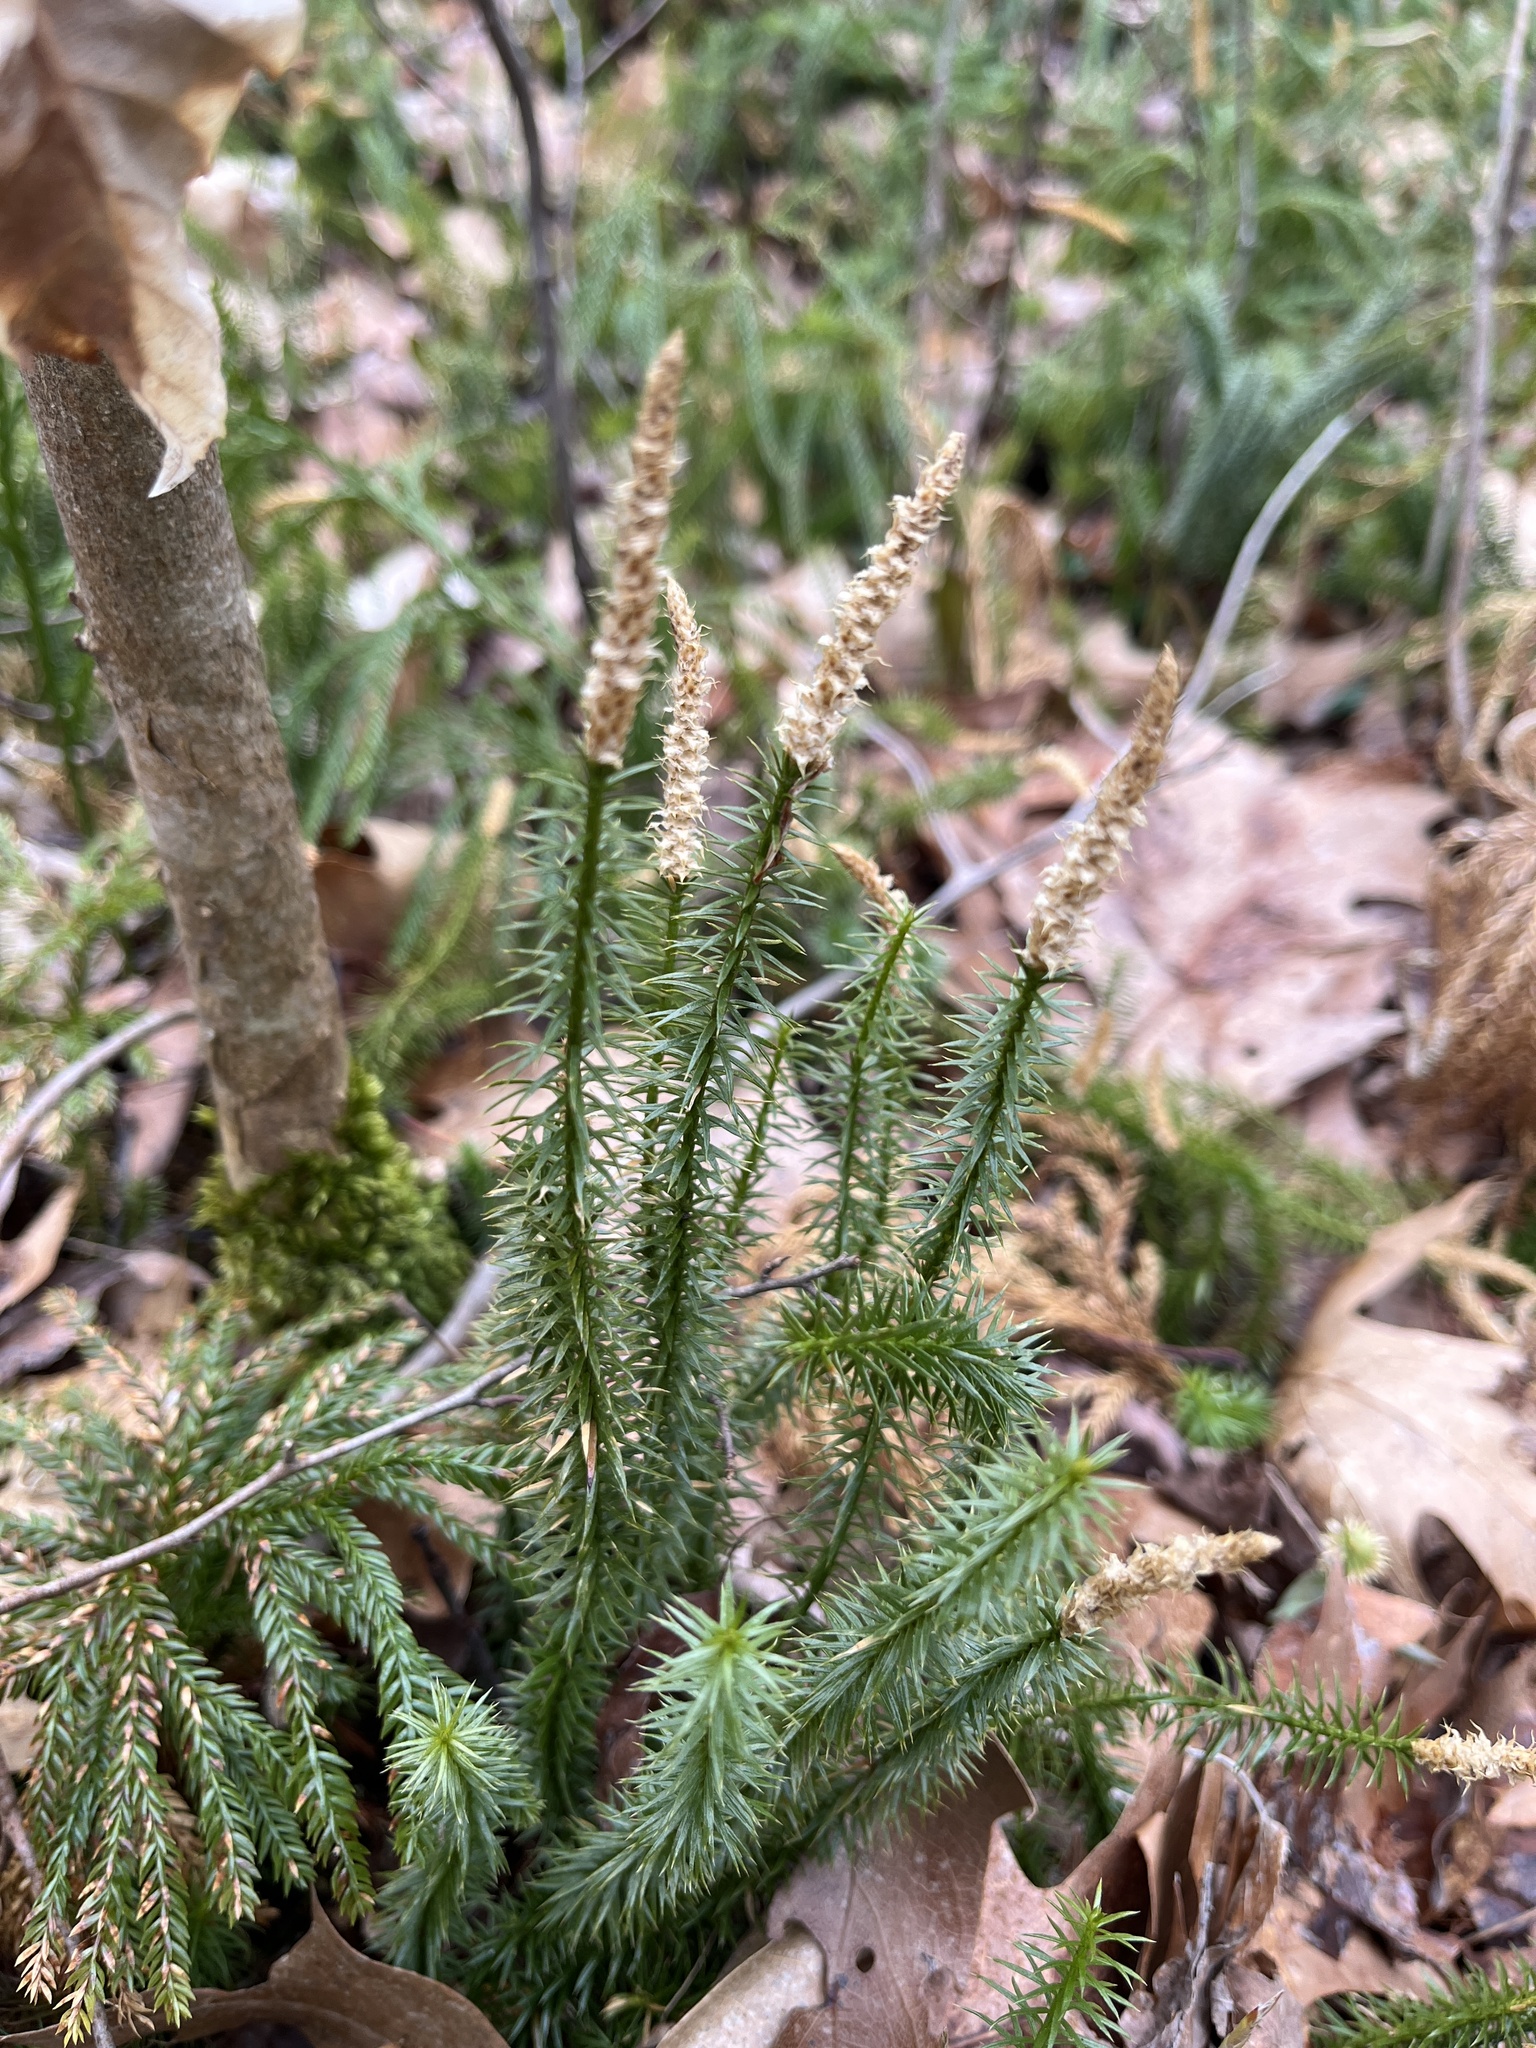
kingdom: Plantae
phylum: Tracheophyta
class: Lycopodiopsida
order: Lycopodiales
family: Lycopodiaceae
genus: Spinulum
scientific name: Spinulum annotinum
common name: Interrupted club-moss
